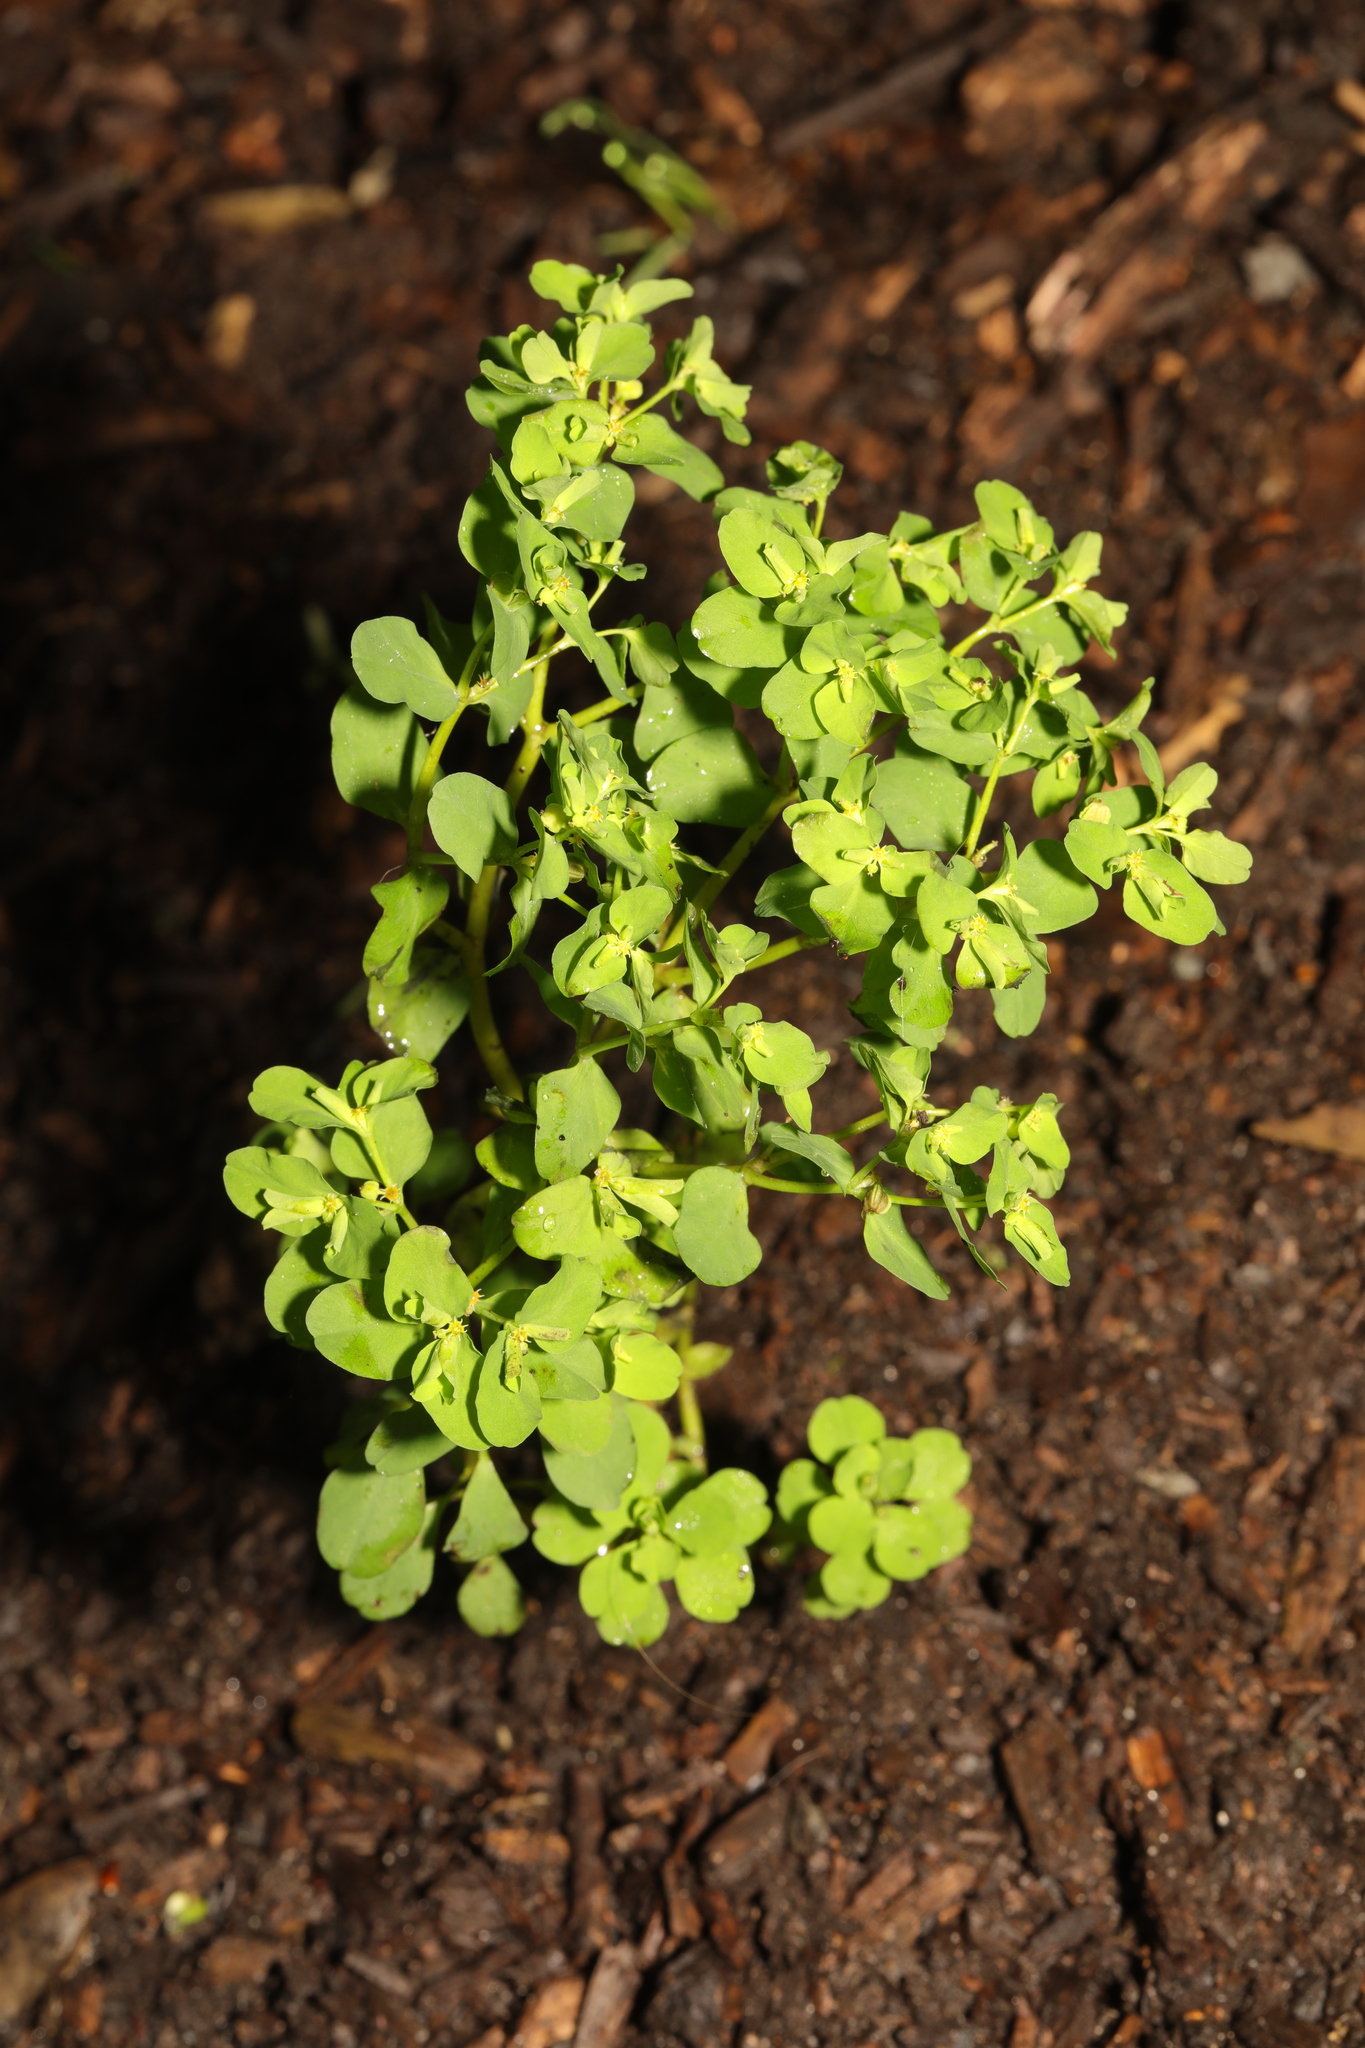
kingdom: Plantae
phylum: Tracheophyta
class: Magnoliopsida
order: Malpighiales
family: Euphorbiaceae
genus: Euphorbia
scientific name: Euphorbia peplus
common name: Petty spurge
